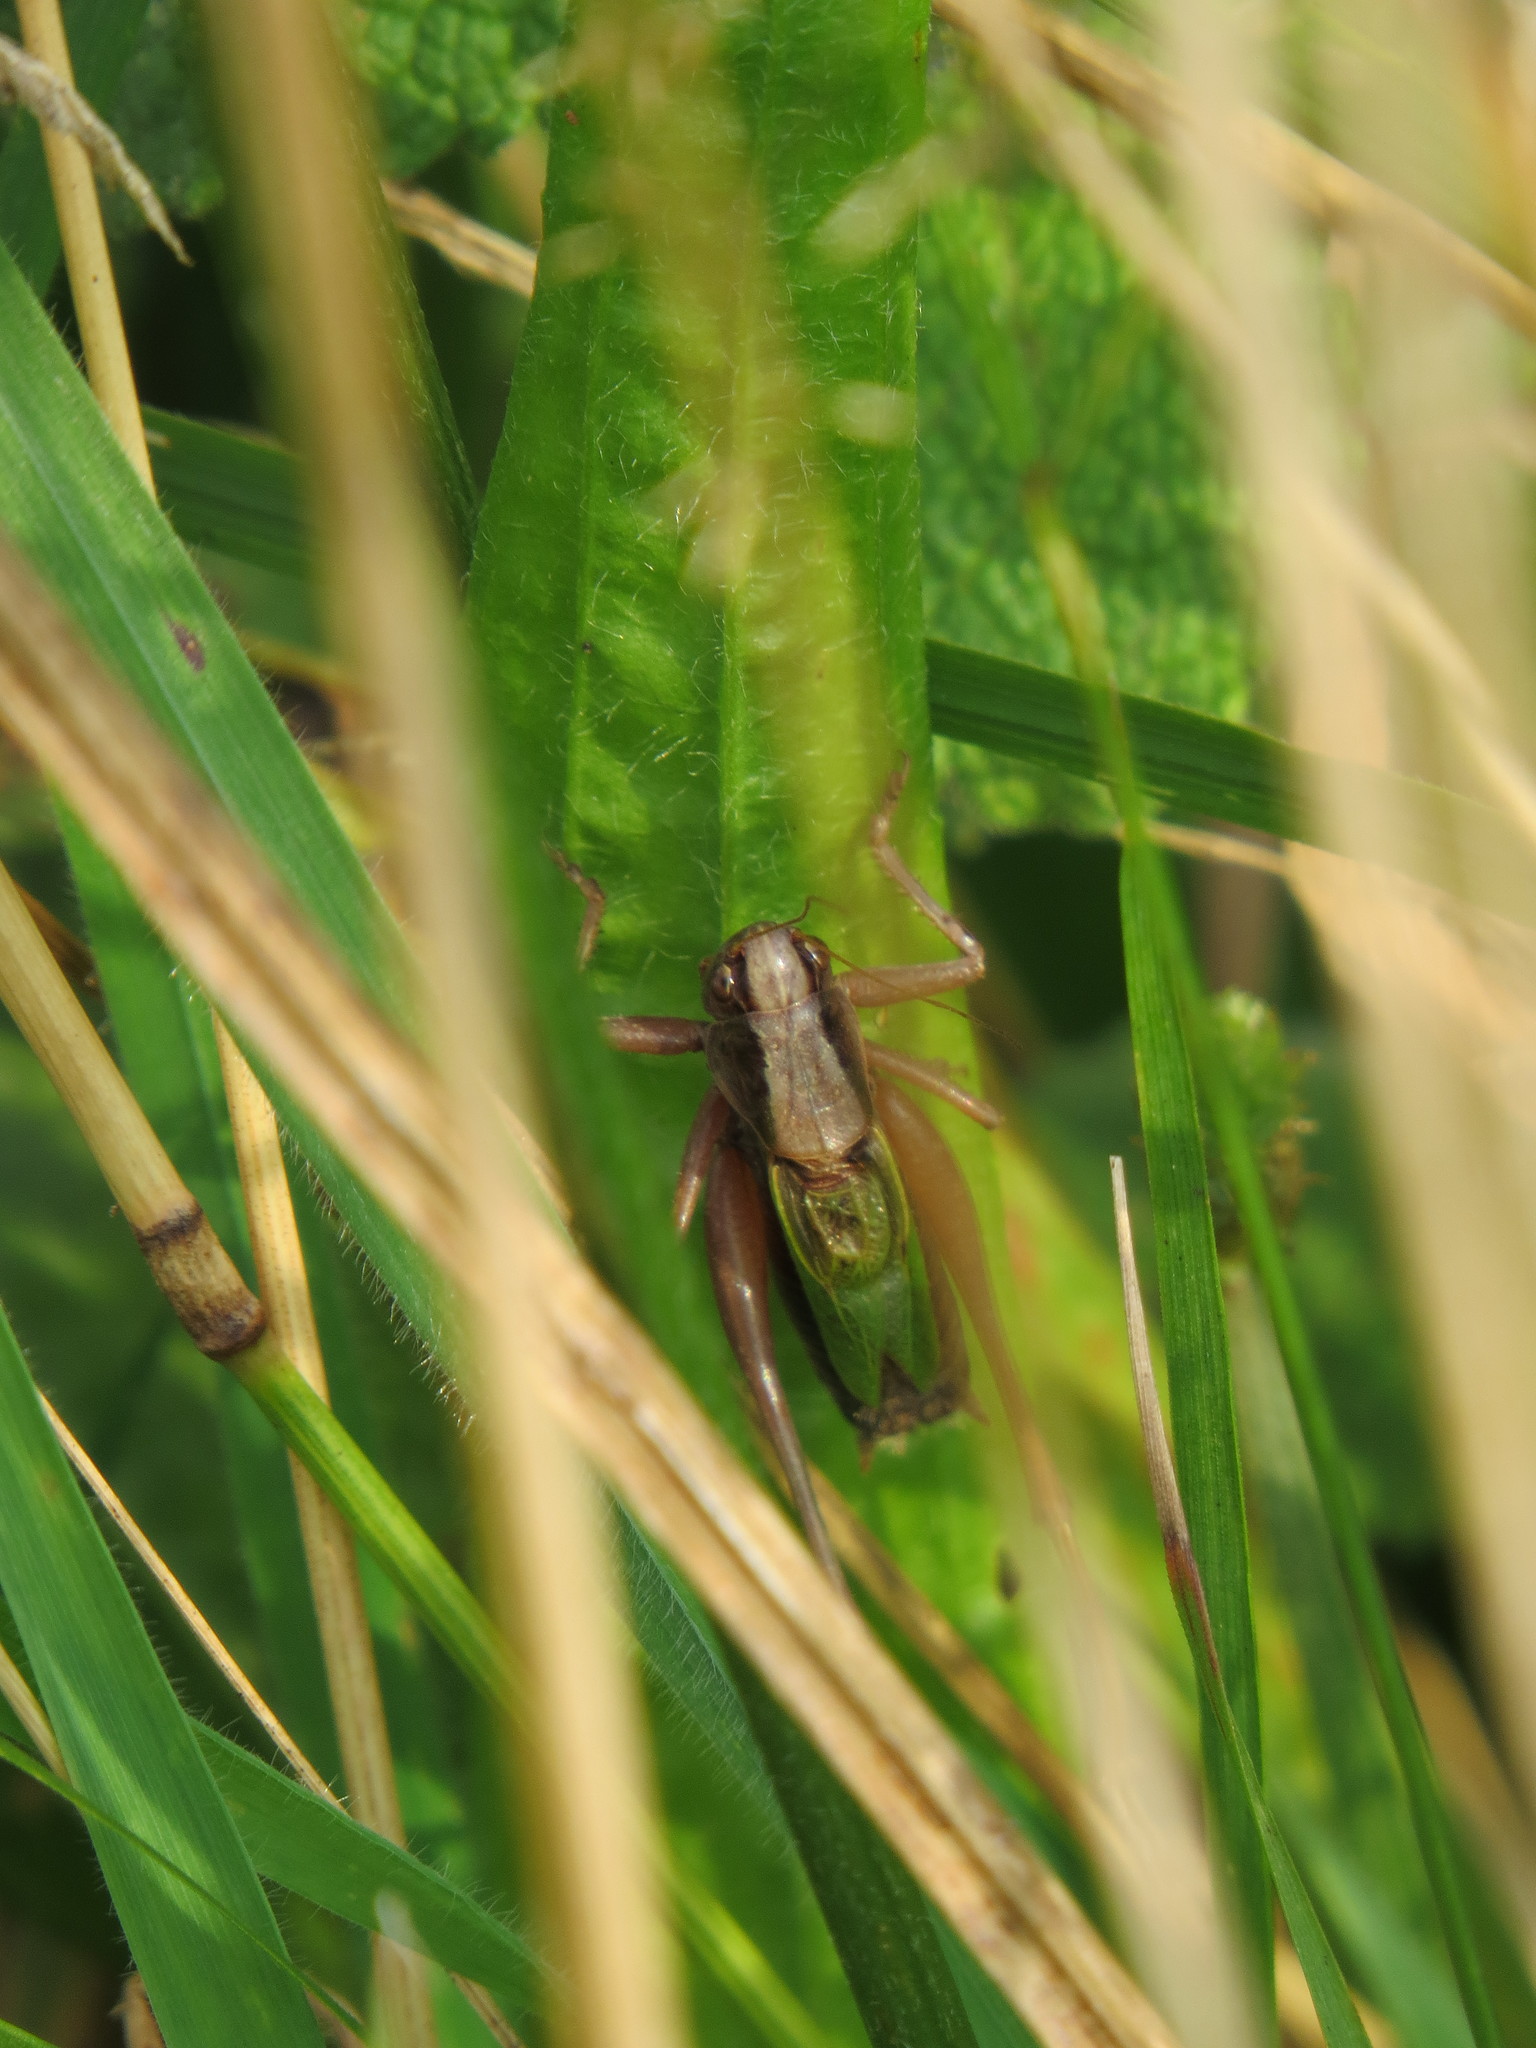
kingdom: Animalia
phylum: Arthropoda
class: Insecta
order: Orthoptera
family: Tettigoniidae
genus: Zeuneriana
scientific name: Zeuneriana abbreviata
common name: Basque bush-cricket
